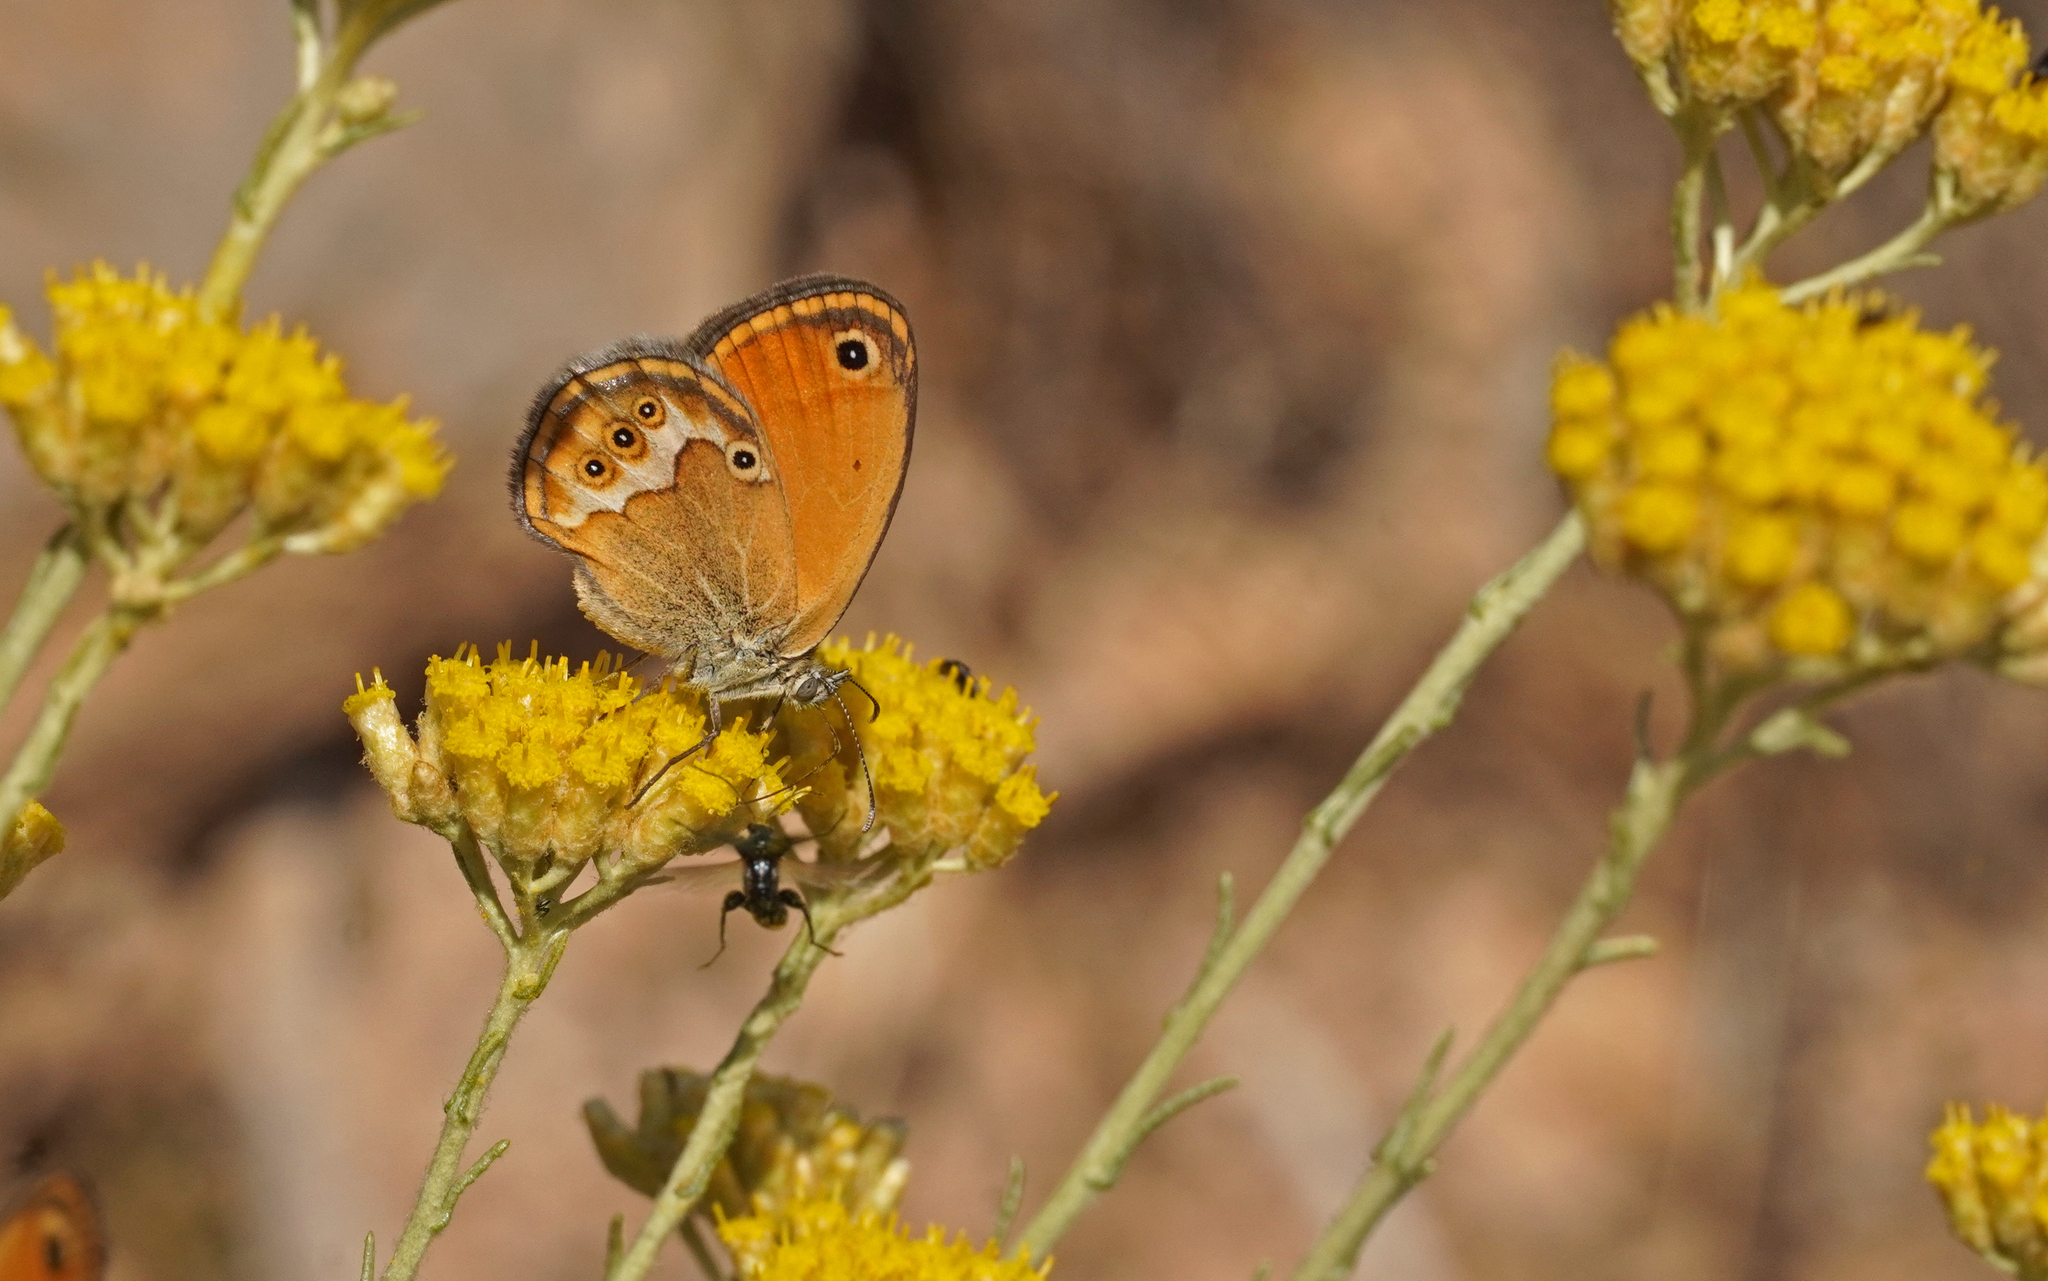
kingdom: Animalia
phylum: Arthropoda
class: Insecta
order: Lepidoptera
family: Nymphalidae
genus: Coenonympha
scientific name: Coenonympha corinna
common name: Corsican heath
